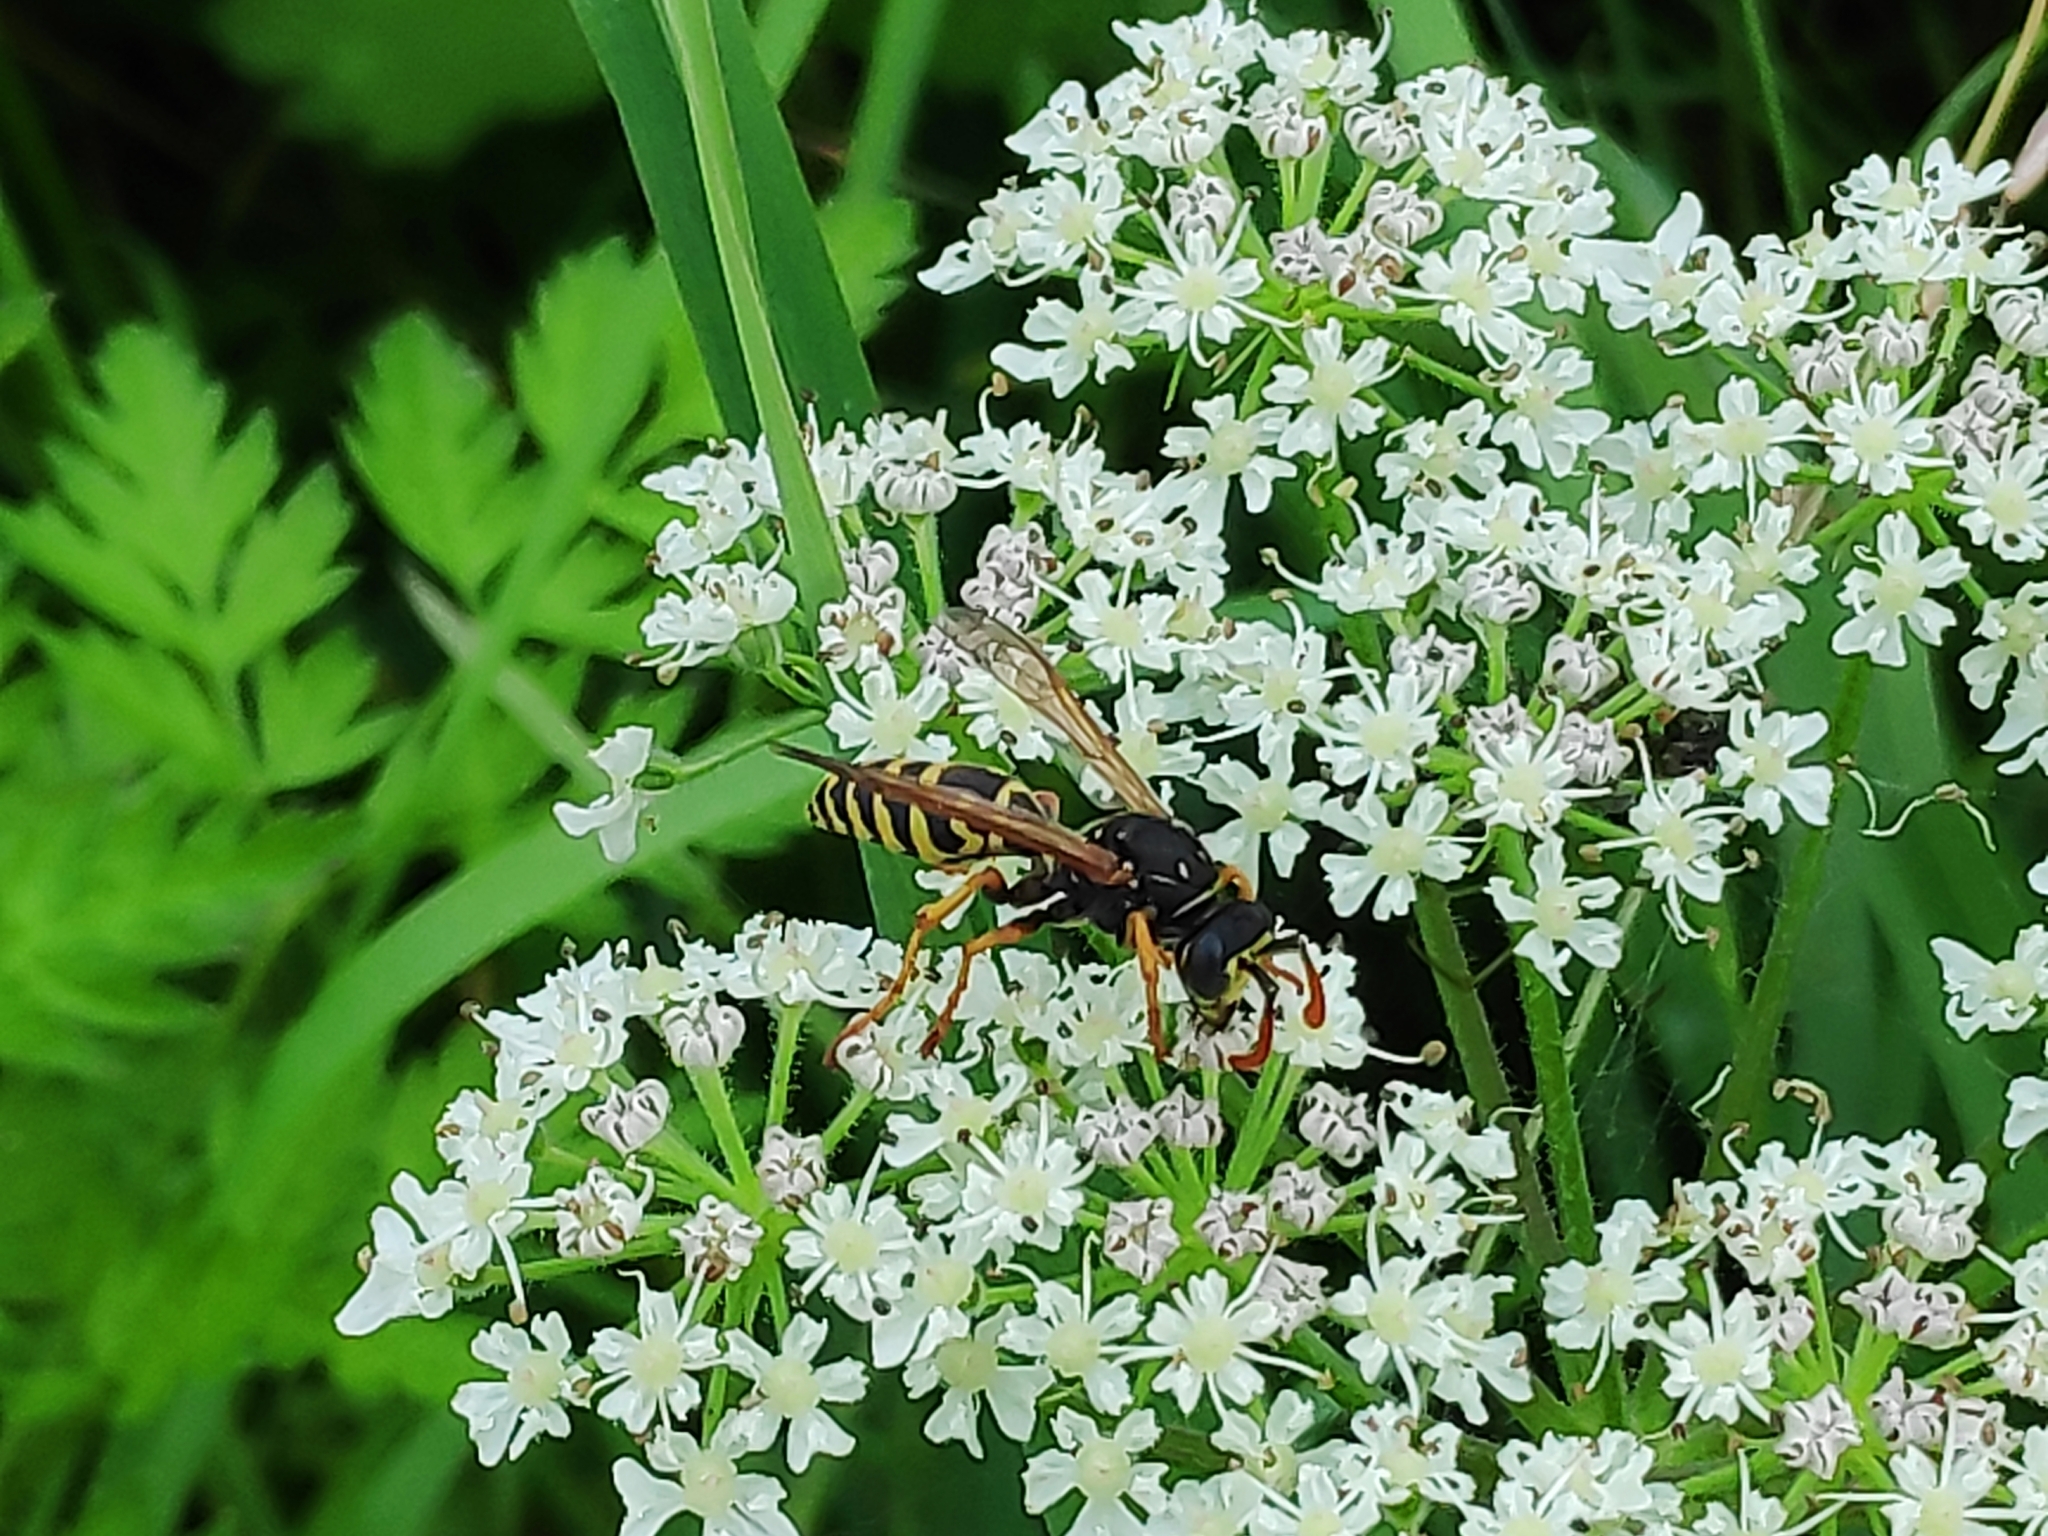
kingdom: Animalia
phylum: Arthropoda
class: Insecta
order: Hymenoptera
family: Eumenidae
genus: Polistes
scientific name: Polistes dominula
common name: Paper wasp
